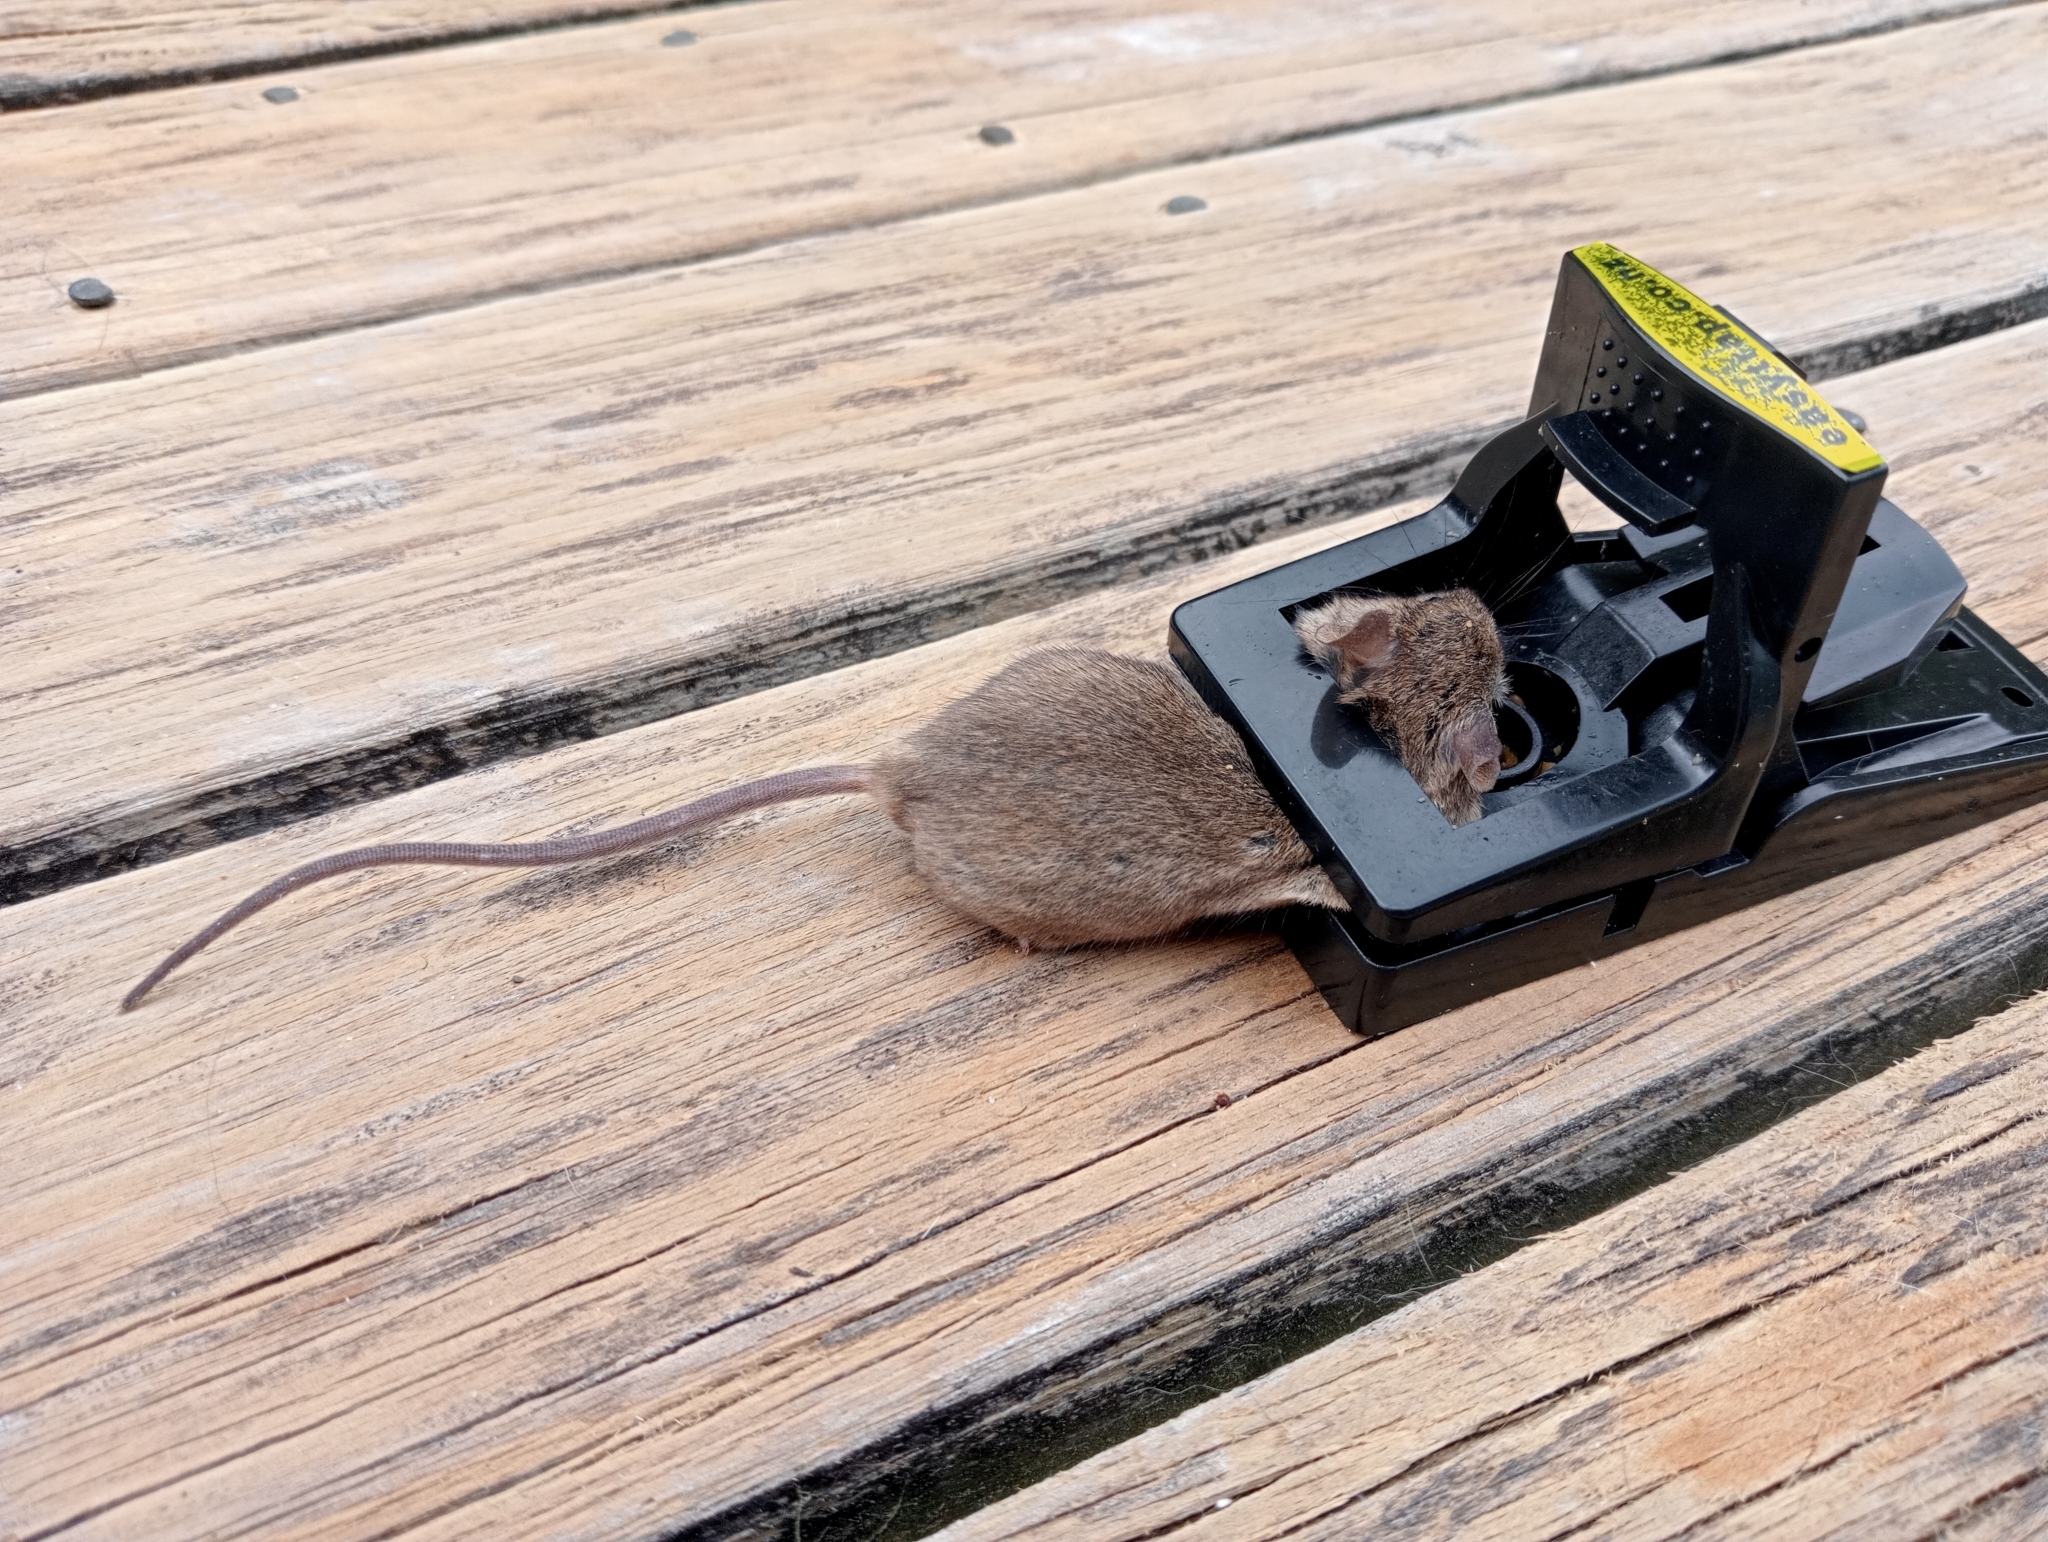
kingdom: Animalia
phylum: Chordata
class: Mammalia
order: Rodentia
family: Muridae
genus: Mus
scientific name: Mus musculus
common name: House mouse
